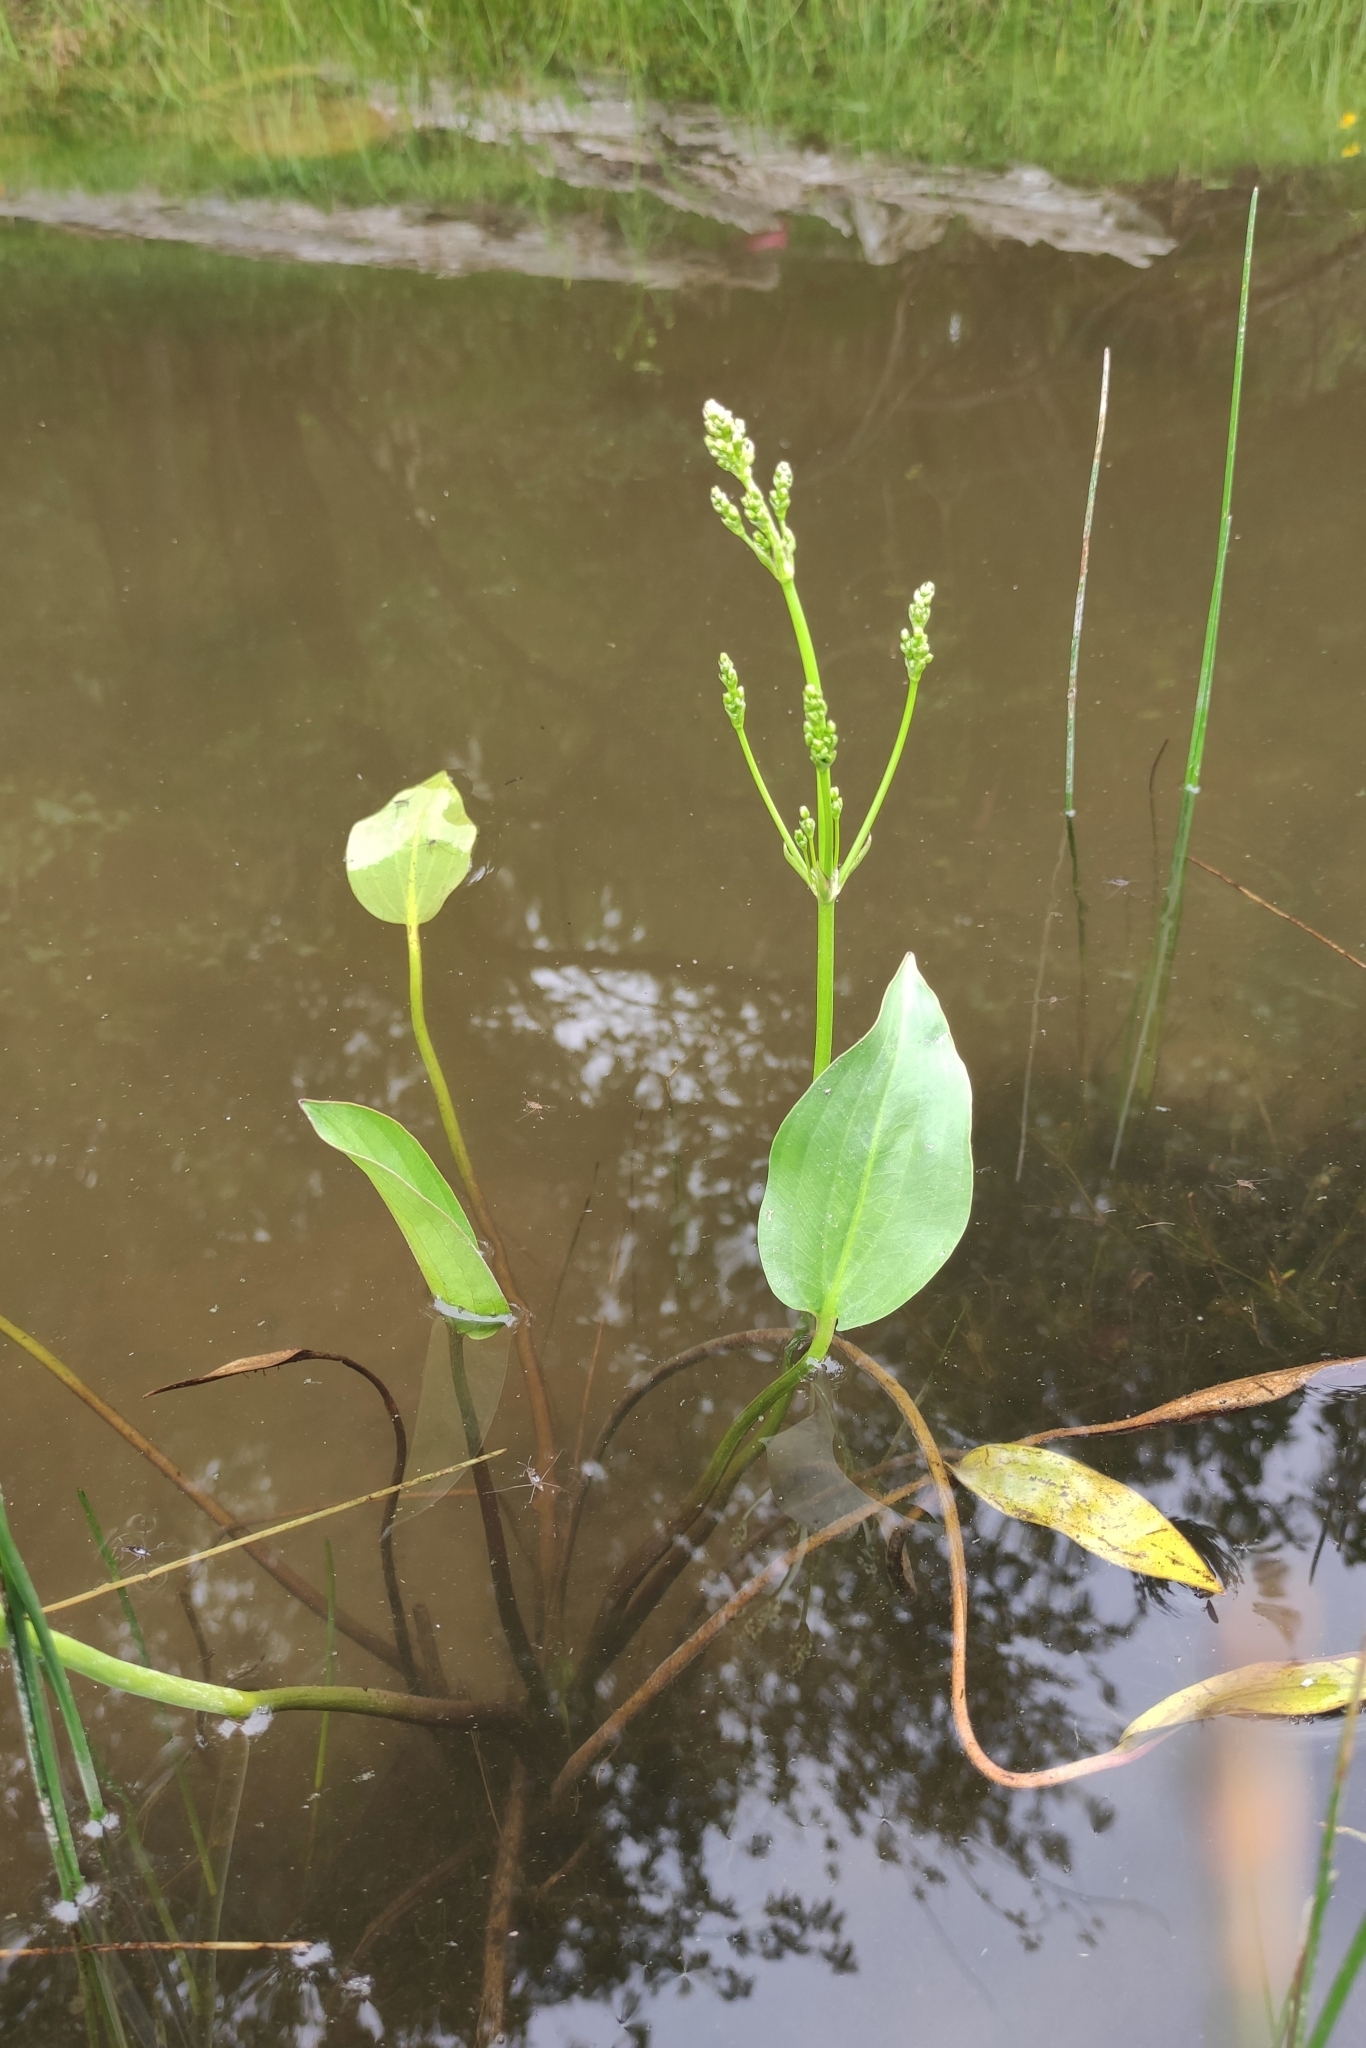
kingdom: Plantae
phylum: Tracheophyta
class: Liliopsida
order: Alismatales
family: Alismataceae
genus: Alisma
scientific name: Alisma plantago-aquatica
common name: Water-plantain
